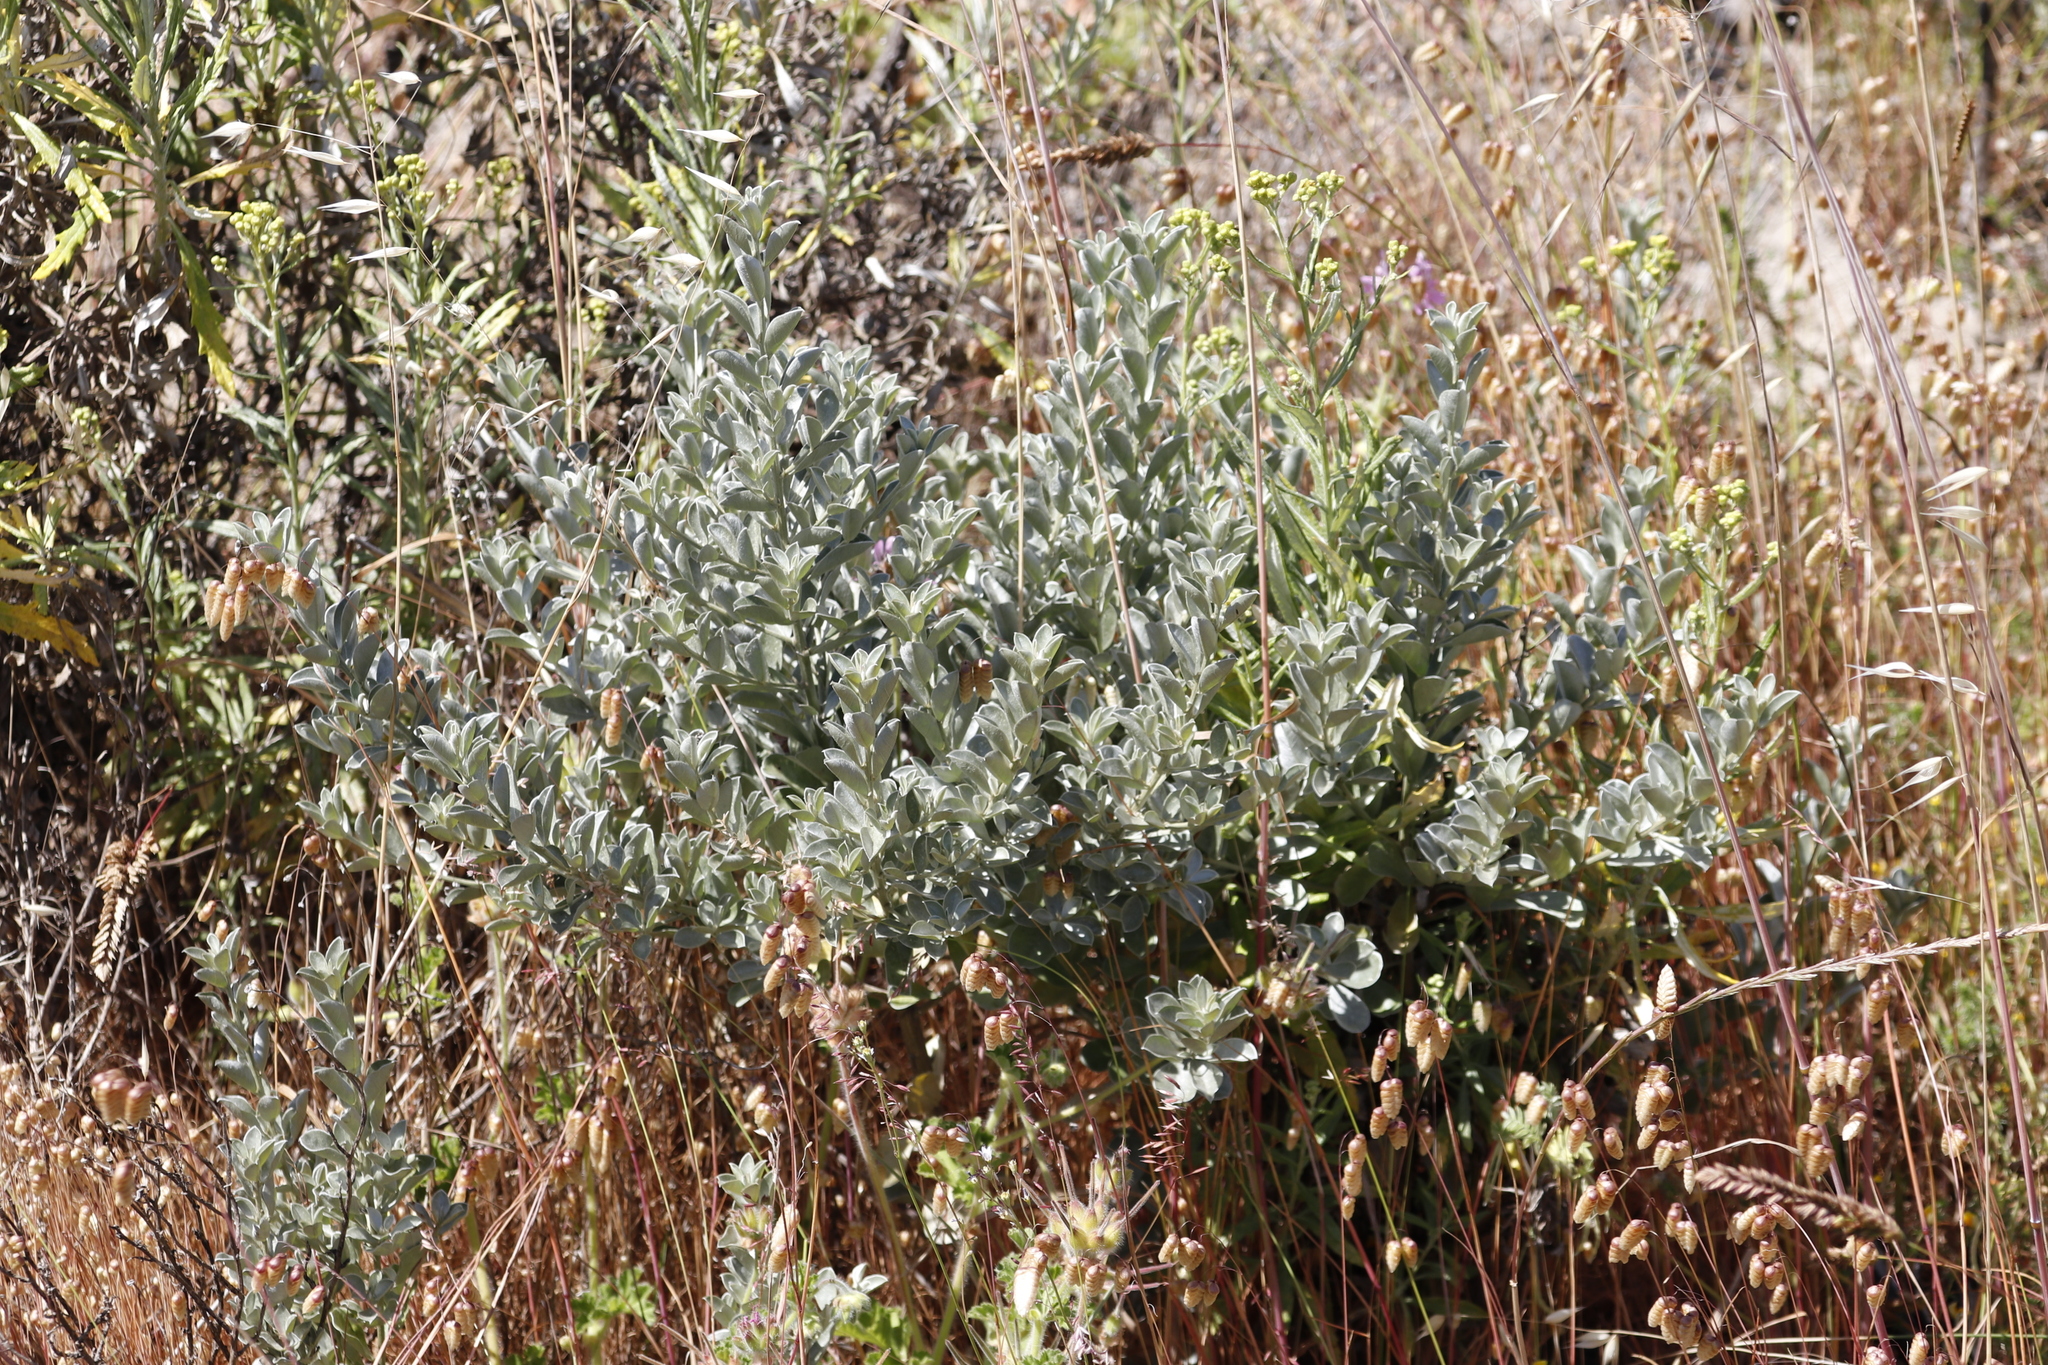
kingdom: Plantae
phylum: Tracheophyta
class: Magnoliopsida
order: Fabales
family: Fabaceae
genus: Podalyria
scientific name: Podalyria sericea
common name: Silver podalyria
